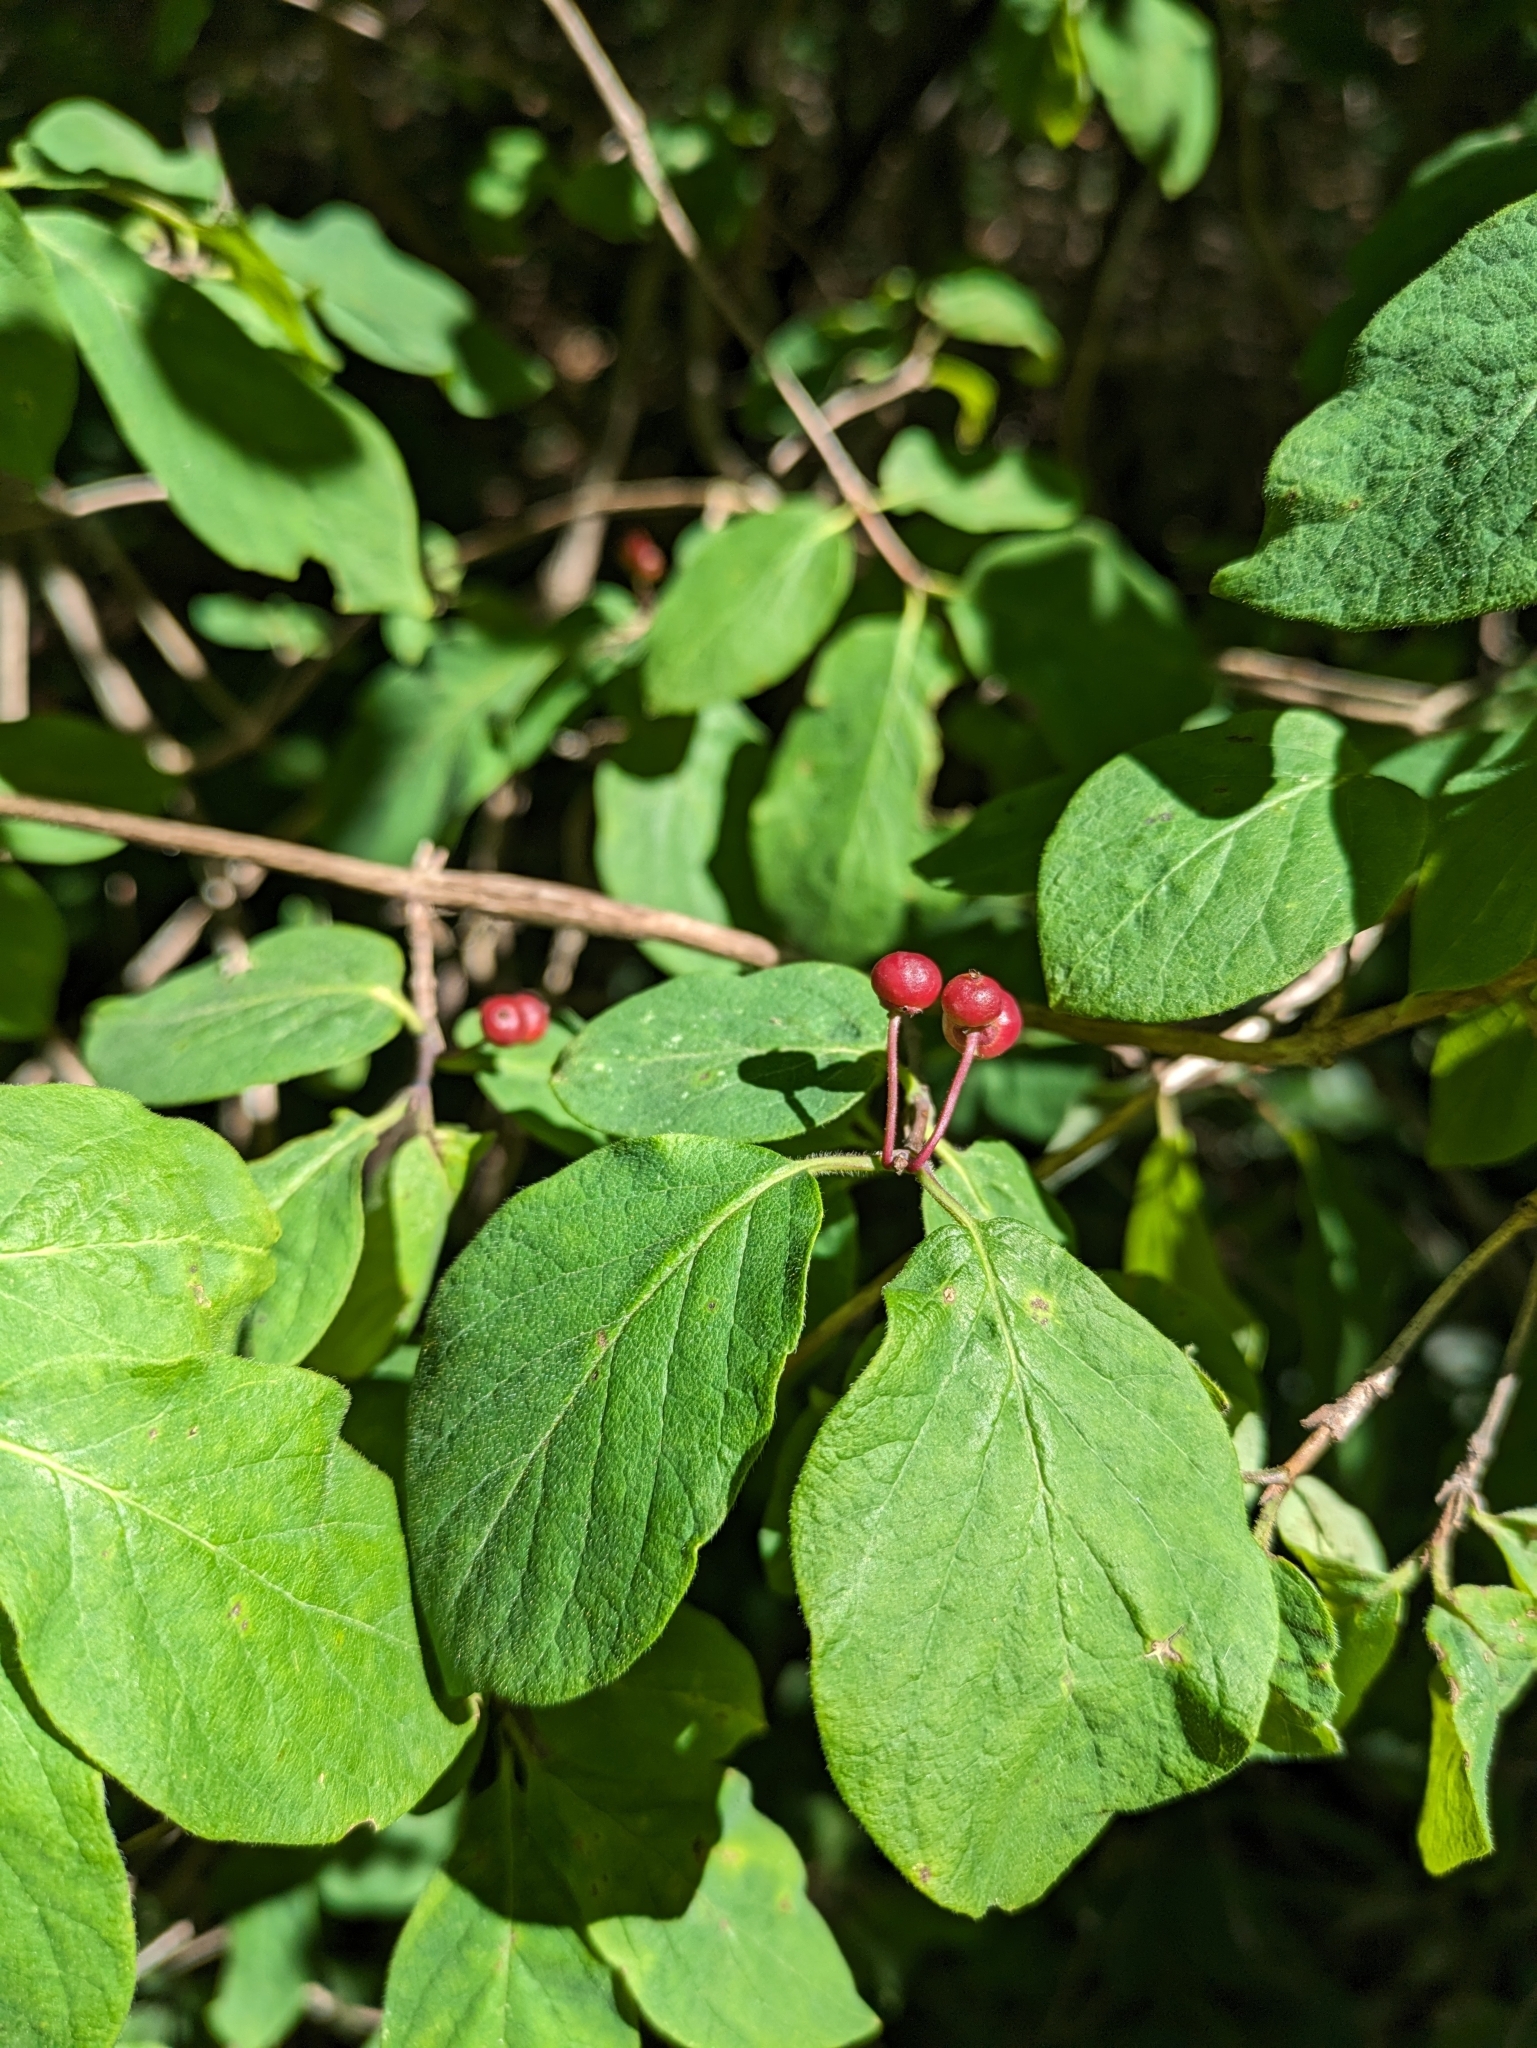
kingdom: Plantae
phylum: Tracheophyta
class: Magnoliopsida
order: Dipsacales
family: Caprifoliaceae
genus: Lonicera
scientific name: Lonicera xylosteum
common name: Fly honeysuckle
